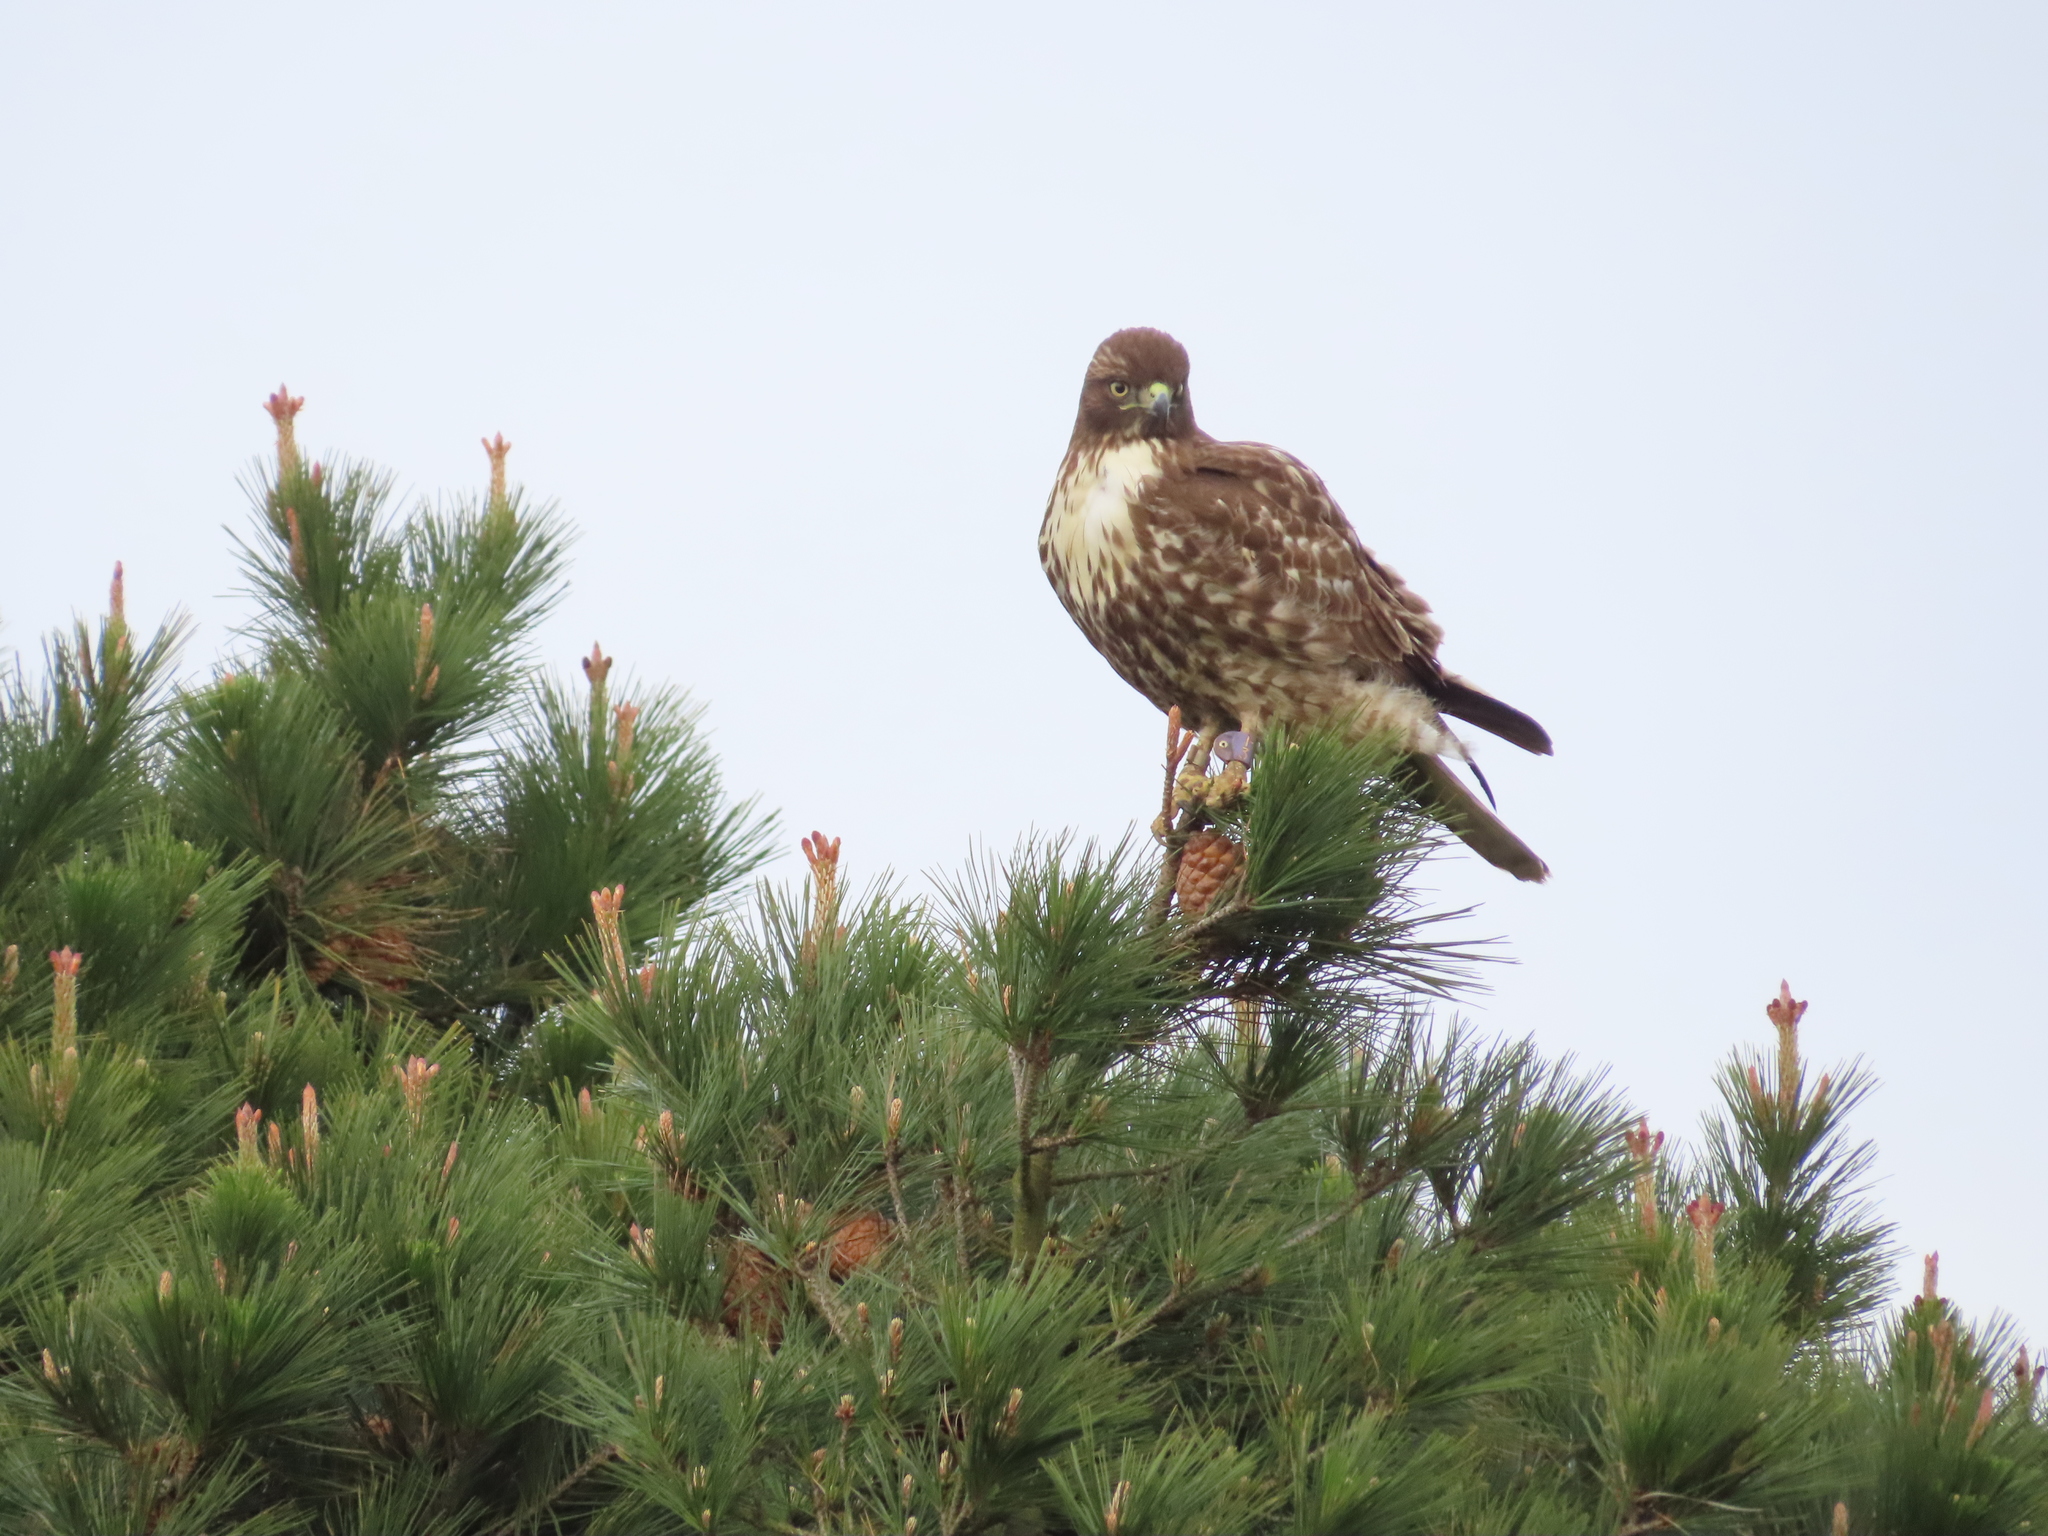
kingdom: Animalia
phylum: Chordata
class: Aves
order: Accipitriformes
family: Accipitridae
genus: Buteo
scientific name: Buteo jamaicensis
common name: Red-tailed hawk
